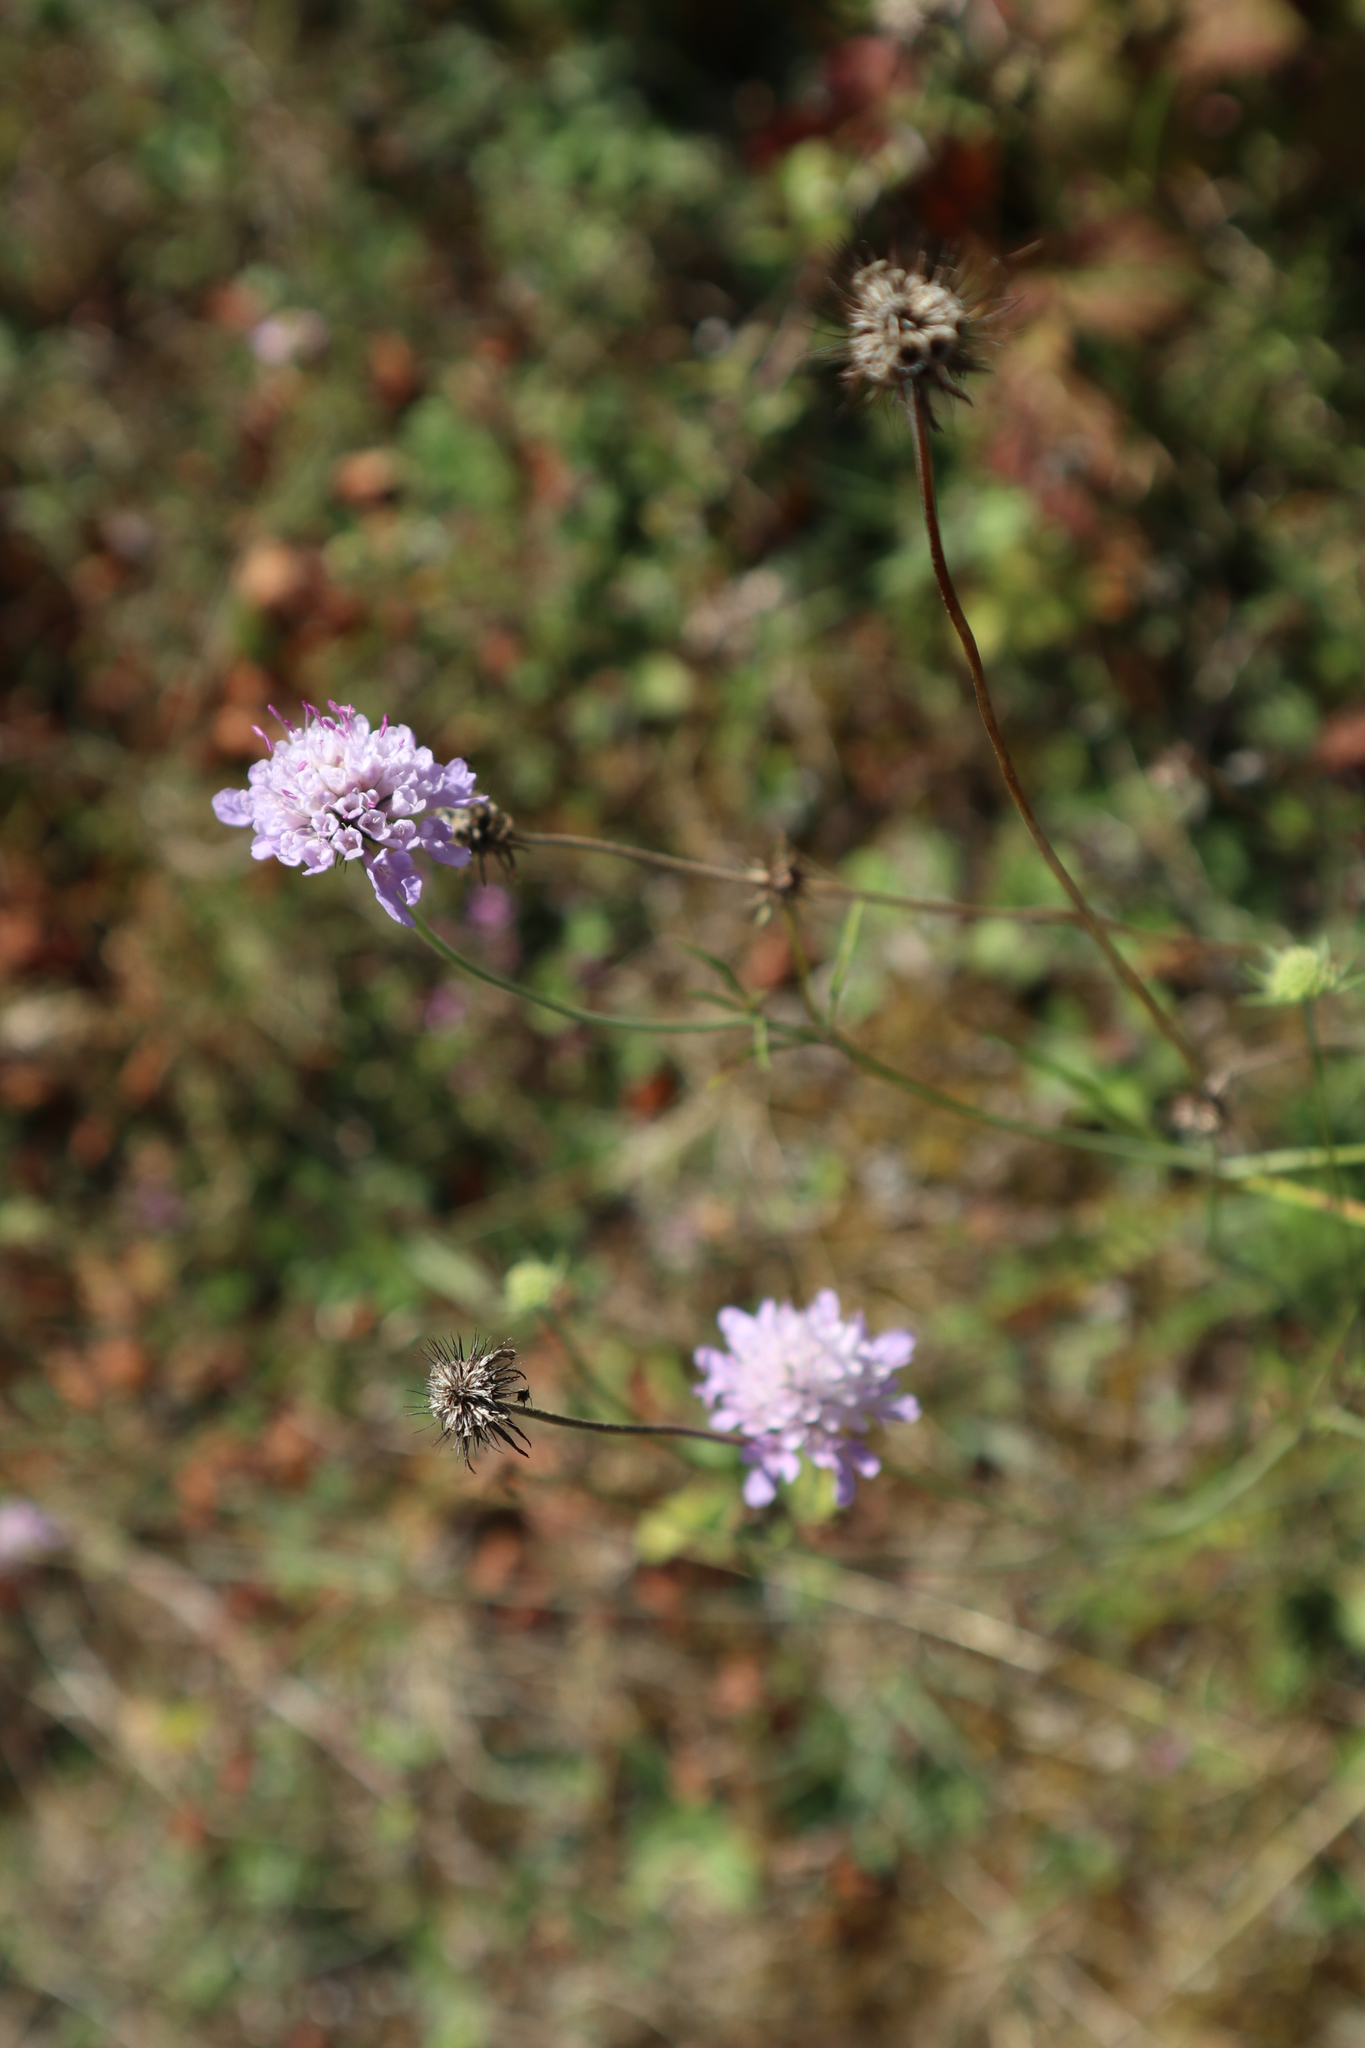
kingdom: Plantae
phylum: Tracheophyta
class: Magnoliopsida
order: Dipsacales
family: Caprifoliaceae
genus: Knautia
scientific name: Knautia arvensis
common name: Field scabiosa
